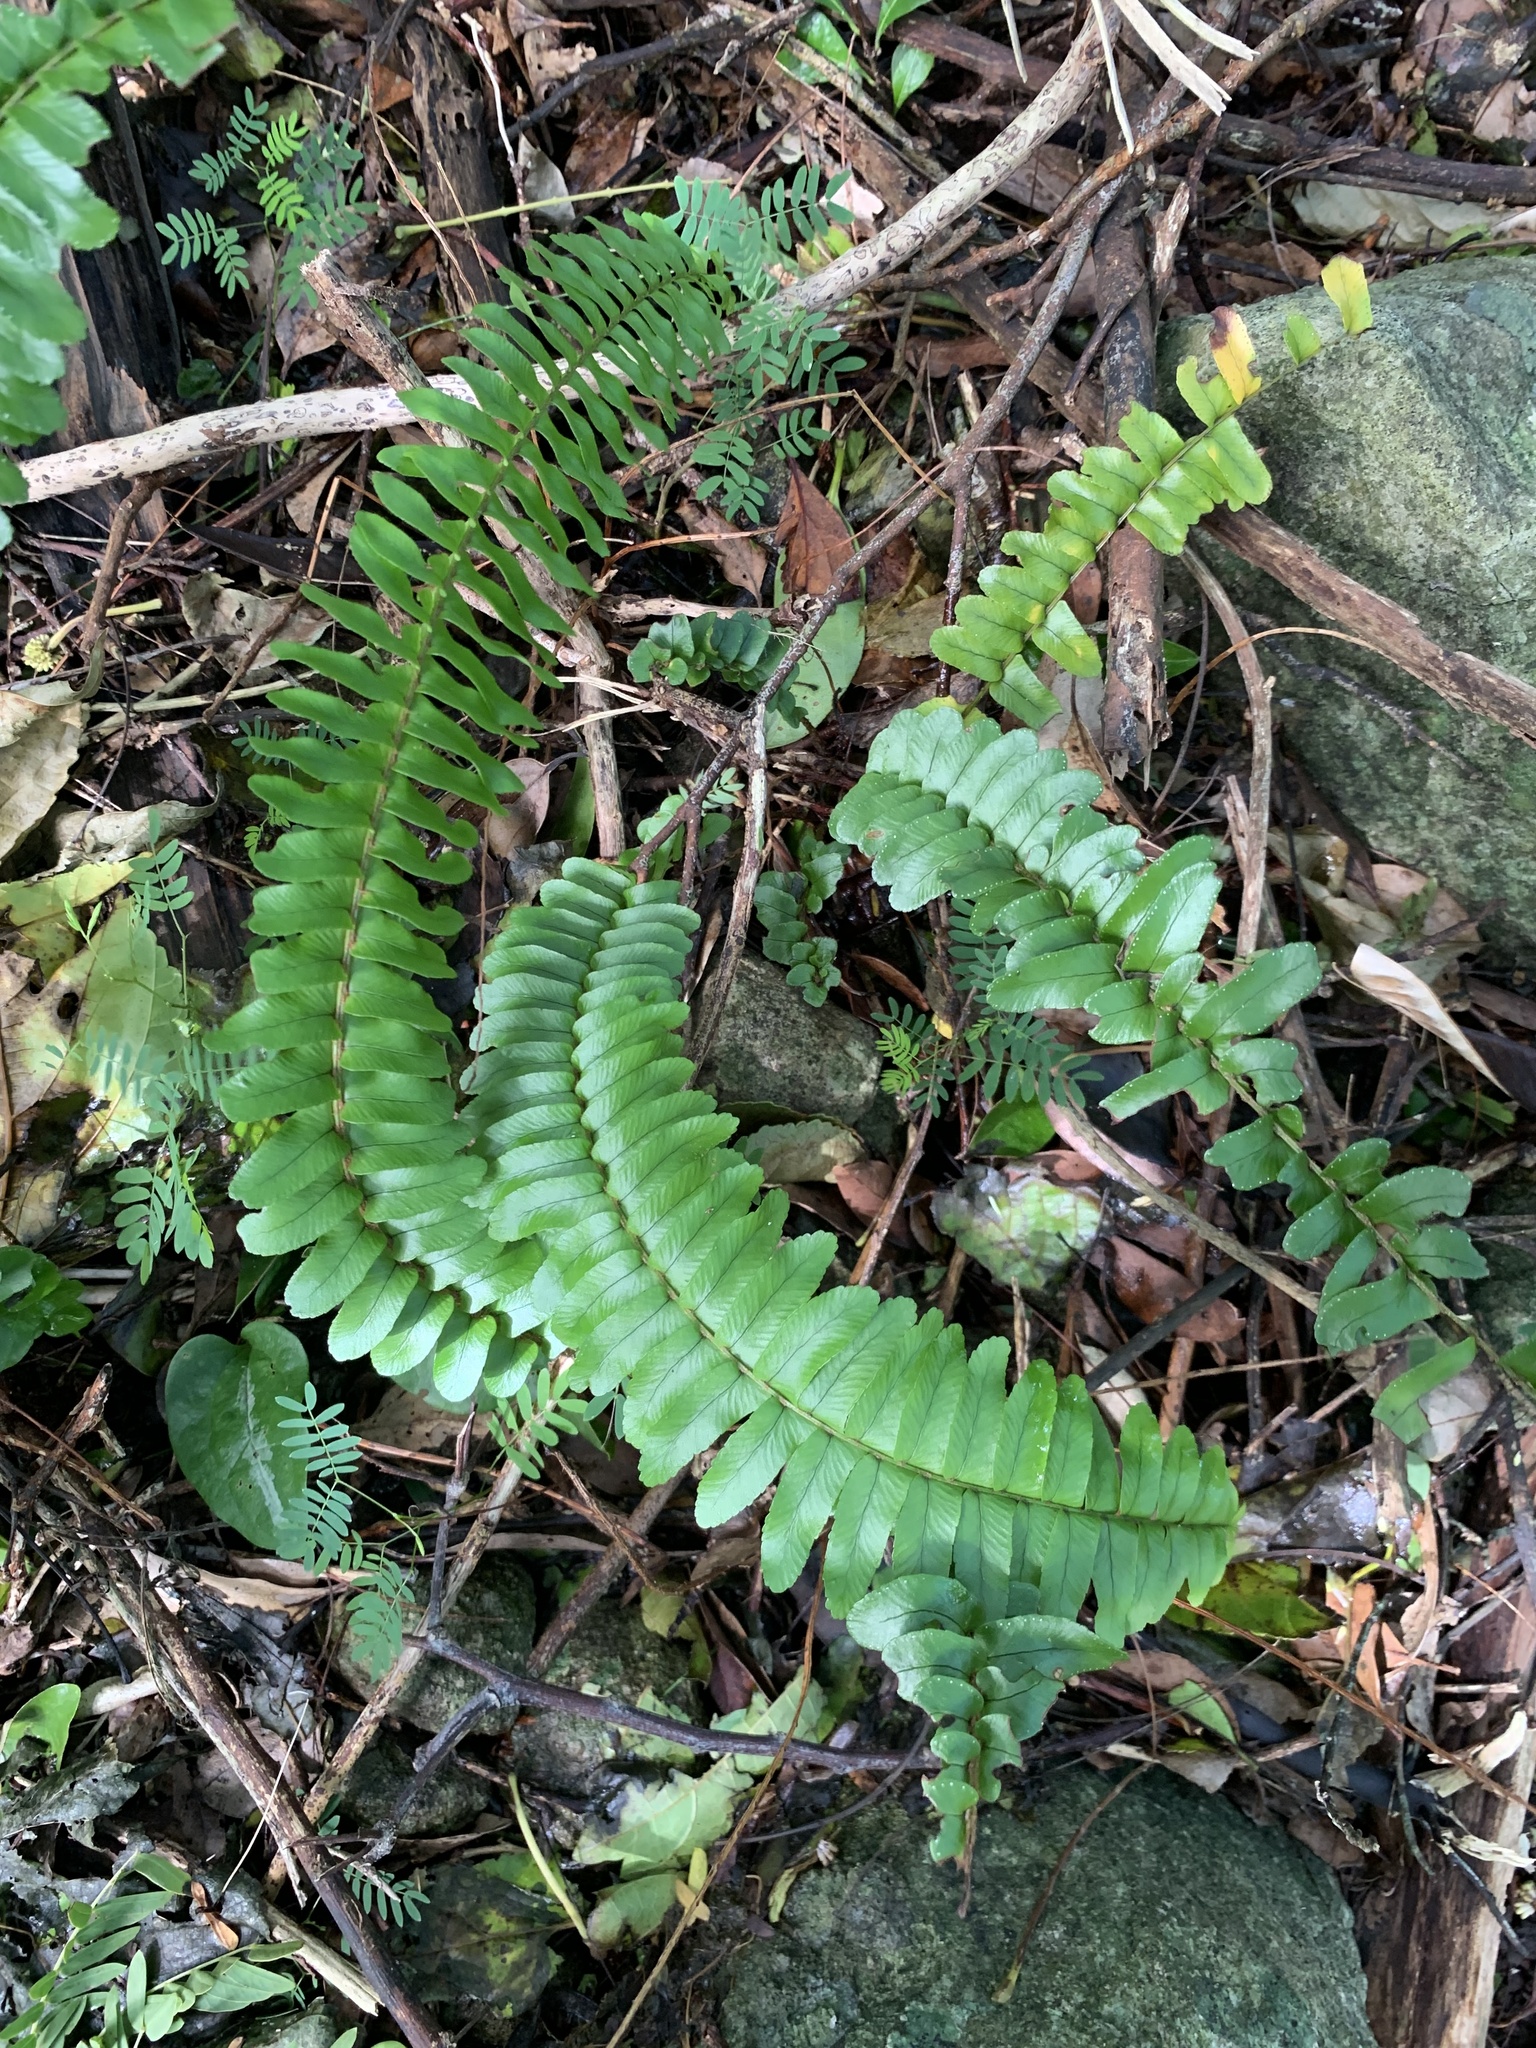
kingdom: Plantae
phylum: Tracheophyta
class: Polypodiopsida
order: Polypodiales
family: Nephrolepidaceae
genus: Nephrolepis
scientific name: Nephrolepis cordifolia
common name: Narrow swordfern
